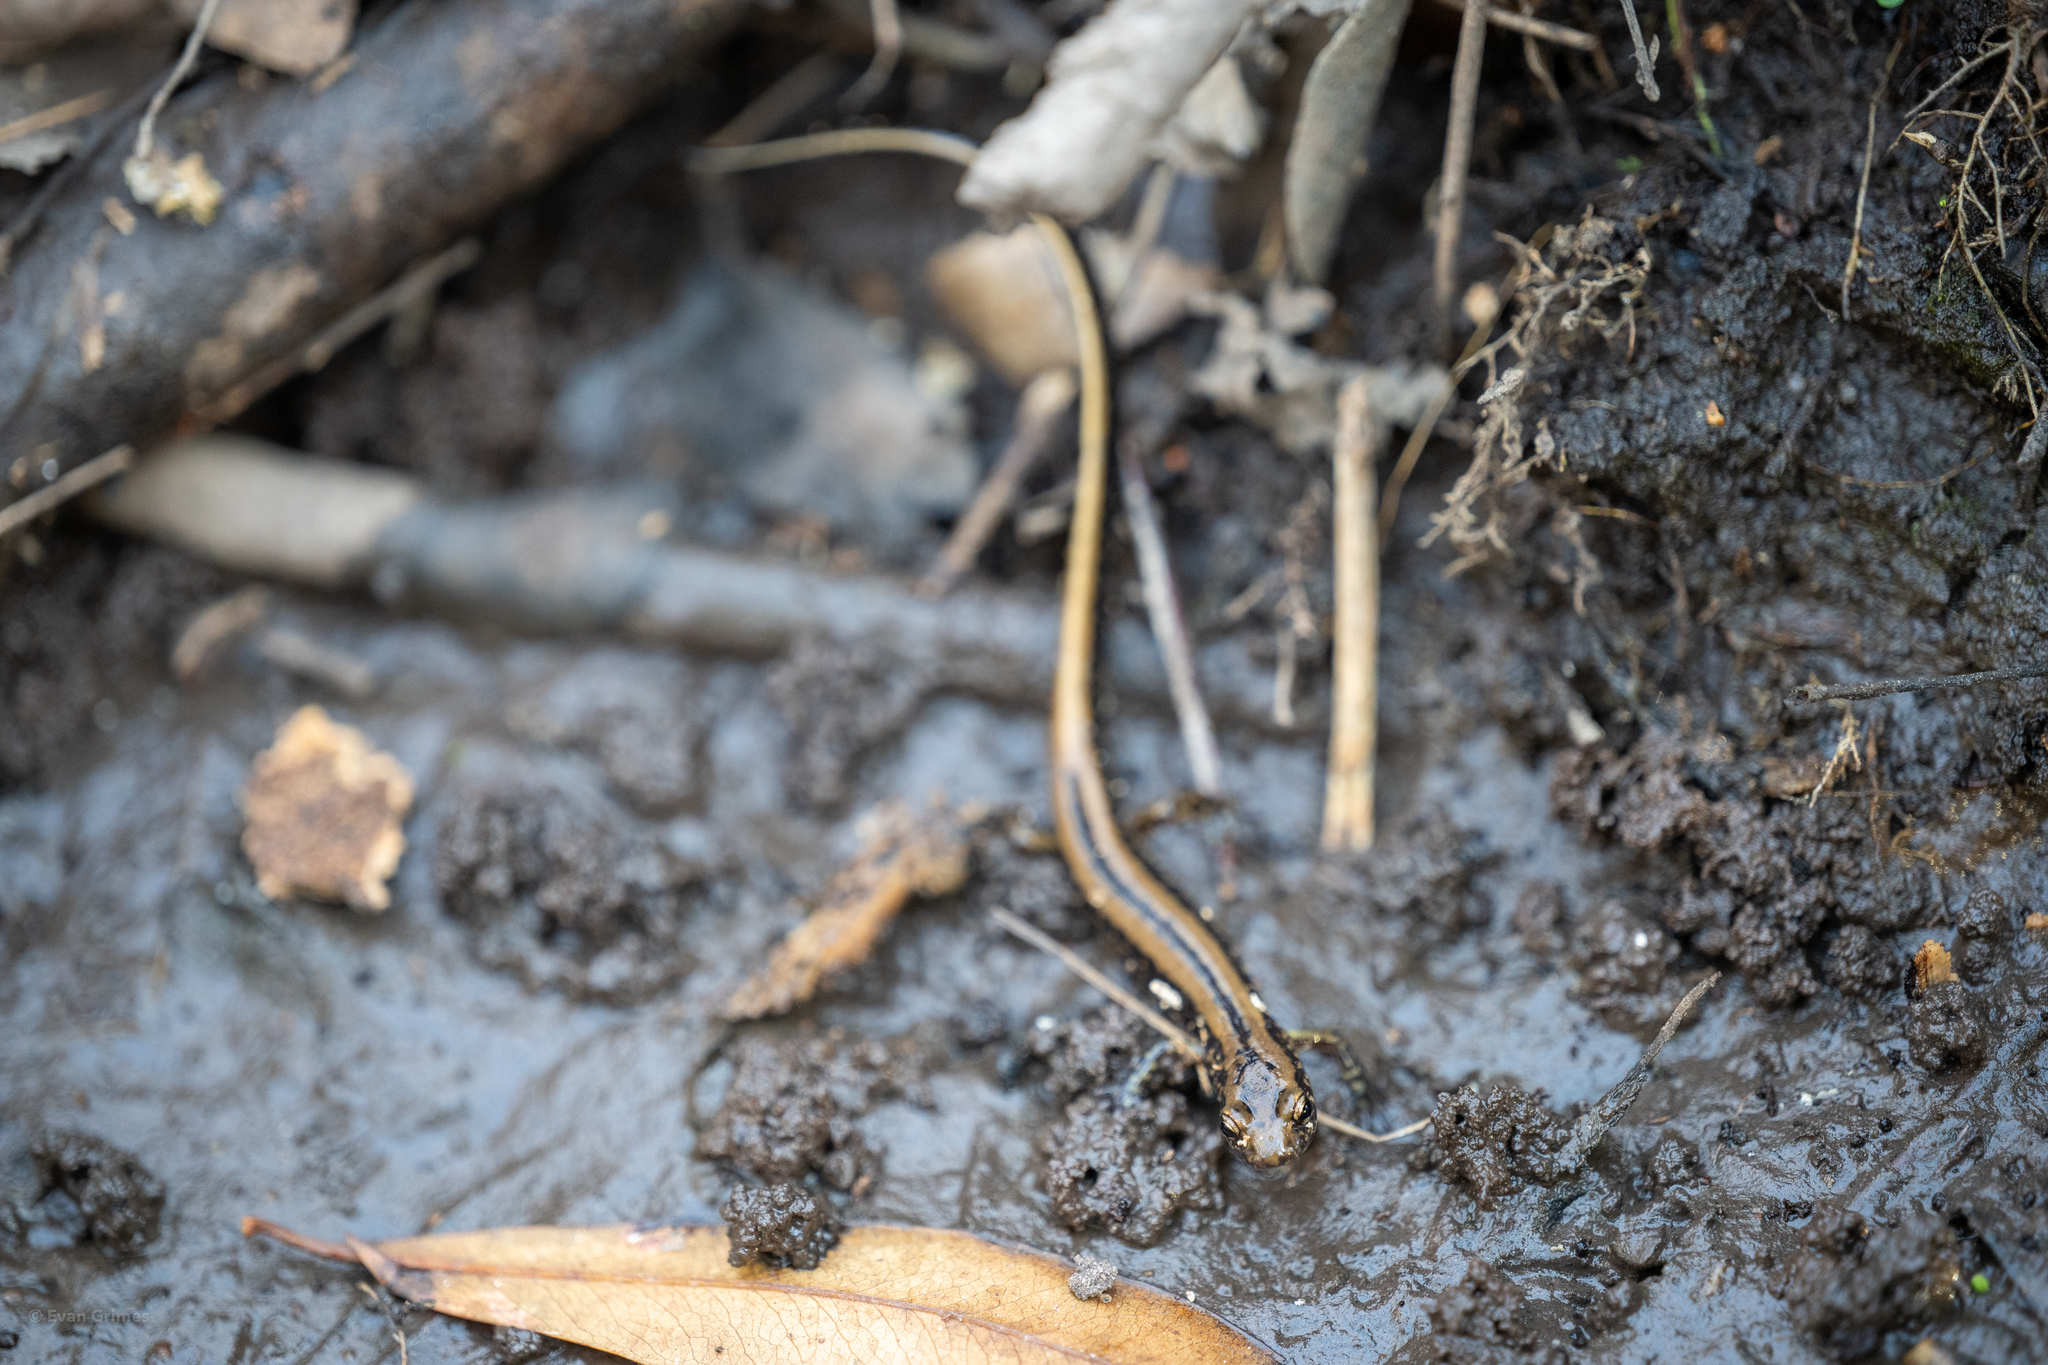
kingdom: Animalia
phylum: Chordata
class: Amphibia
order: Caudata
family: Plethodontidae
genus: Eurycea
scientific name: Eurycea guttolineata
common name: Three-lined salamander
